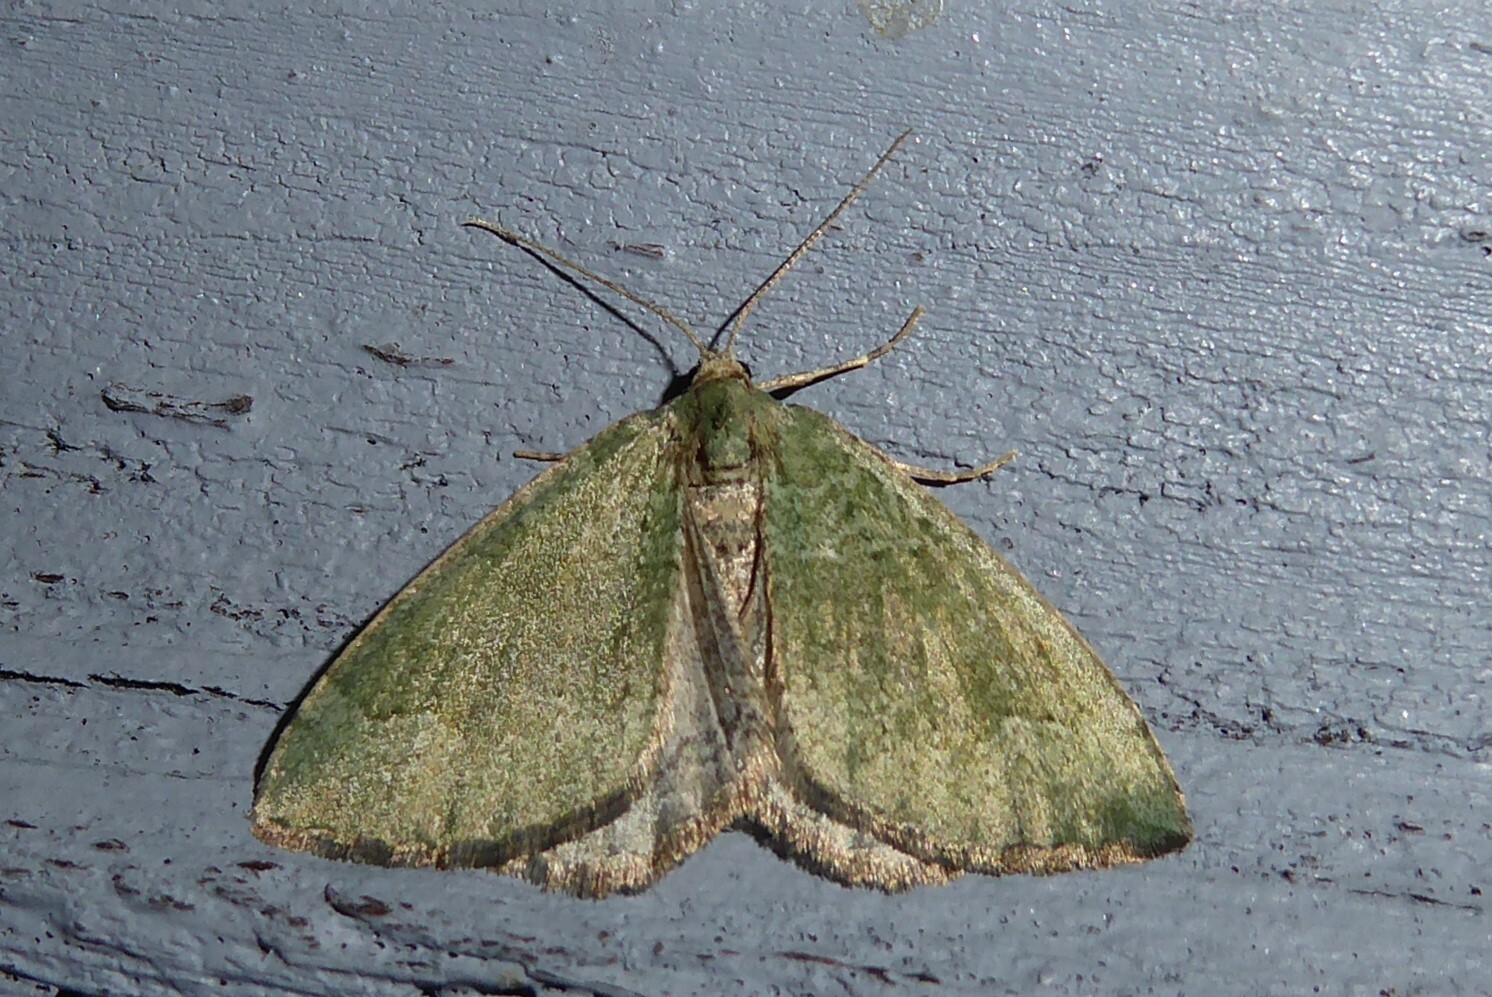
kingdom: Animalia
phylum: Arthropoda
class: Insecta
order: Lepidoptera
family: Geometridae
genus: Epyaxa
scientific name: Epyaxa rosearia
